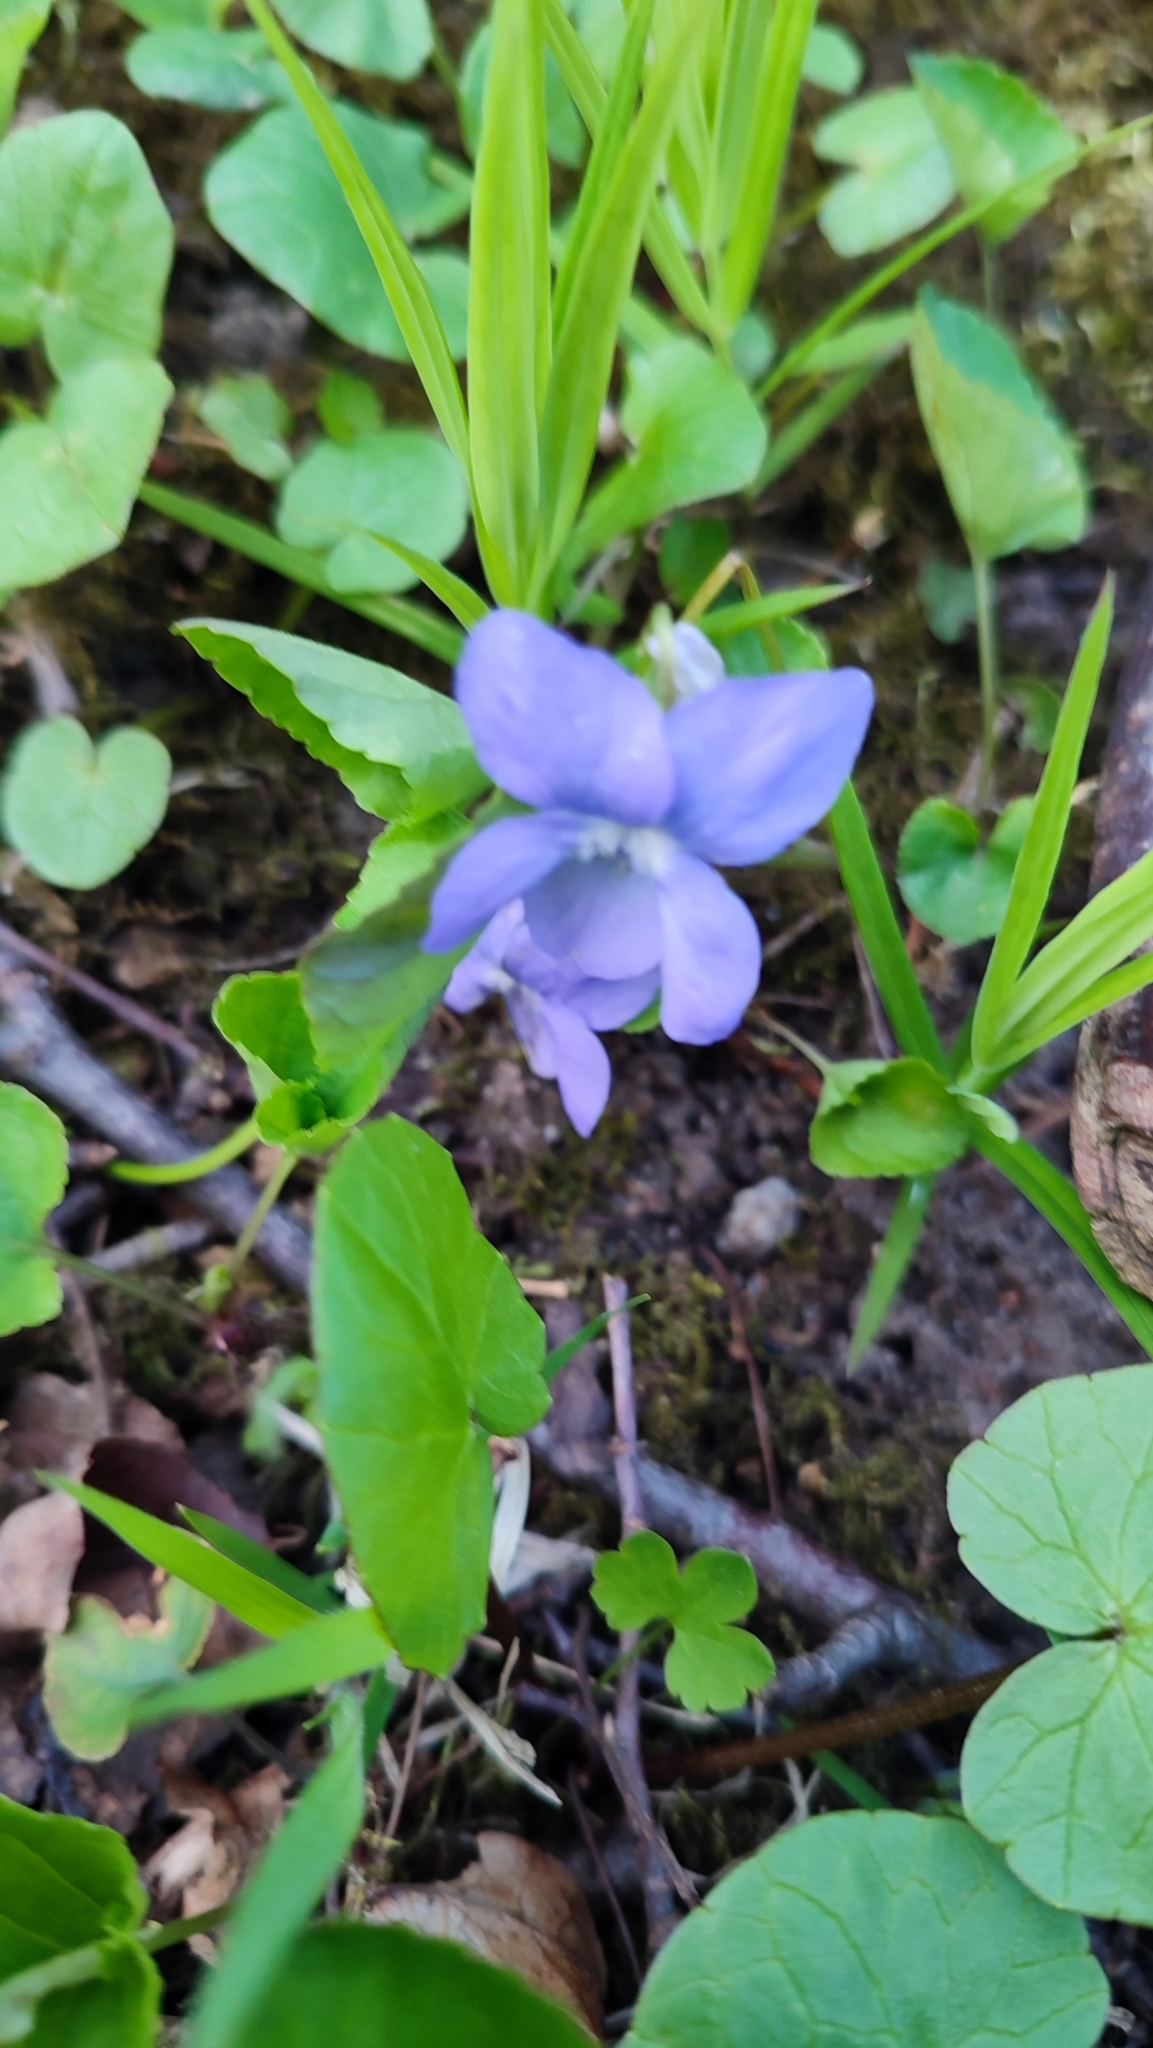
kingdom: Plantae
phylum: Tracheophyta
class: Magnoliopsida
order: Malpighiales
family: Violaceae
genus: Viola
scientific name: Viola riviniana
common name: Common dog-violet
